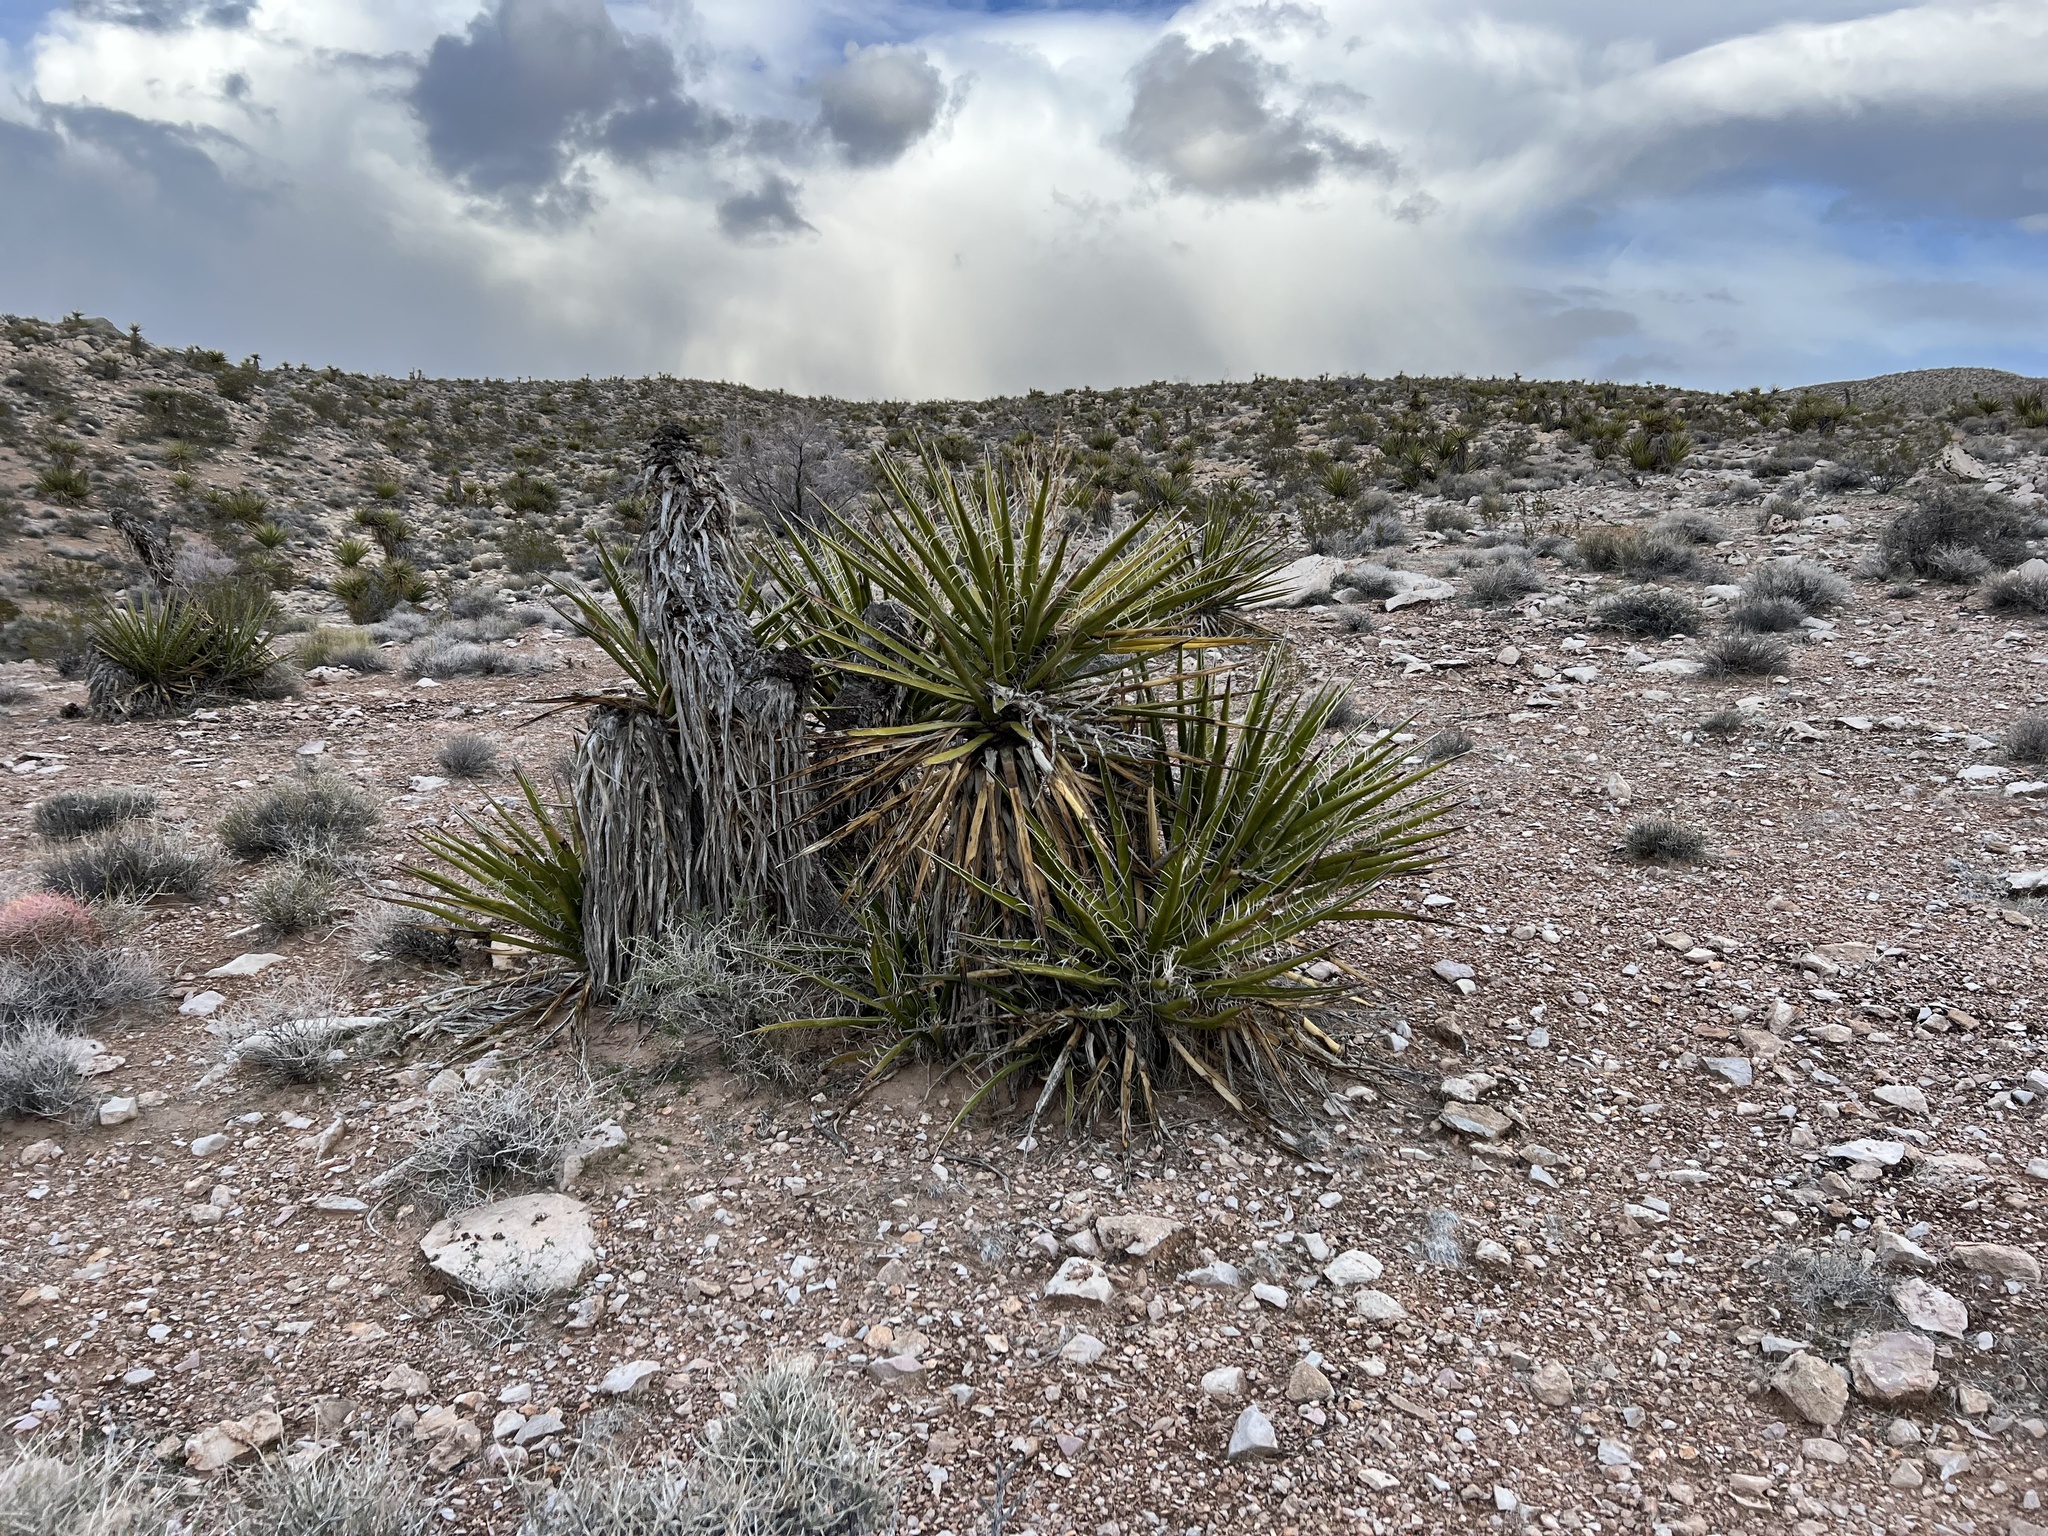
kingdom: Plantae
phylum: Tracheophyta
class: Liliopsida
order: Asparagales
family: Asparagaceae
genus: Yucca
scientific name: Yucca schidigera
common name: Mojave yucca
